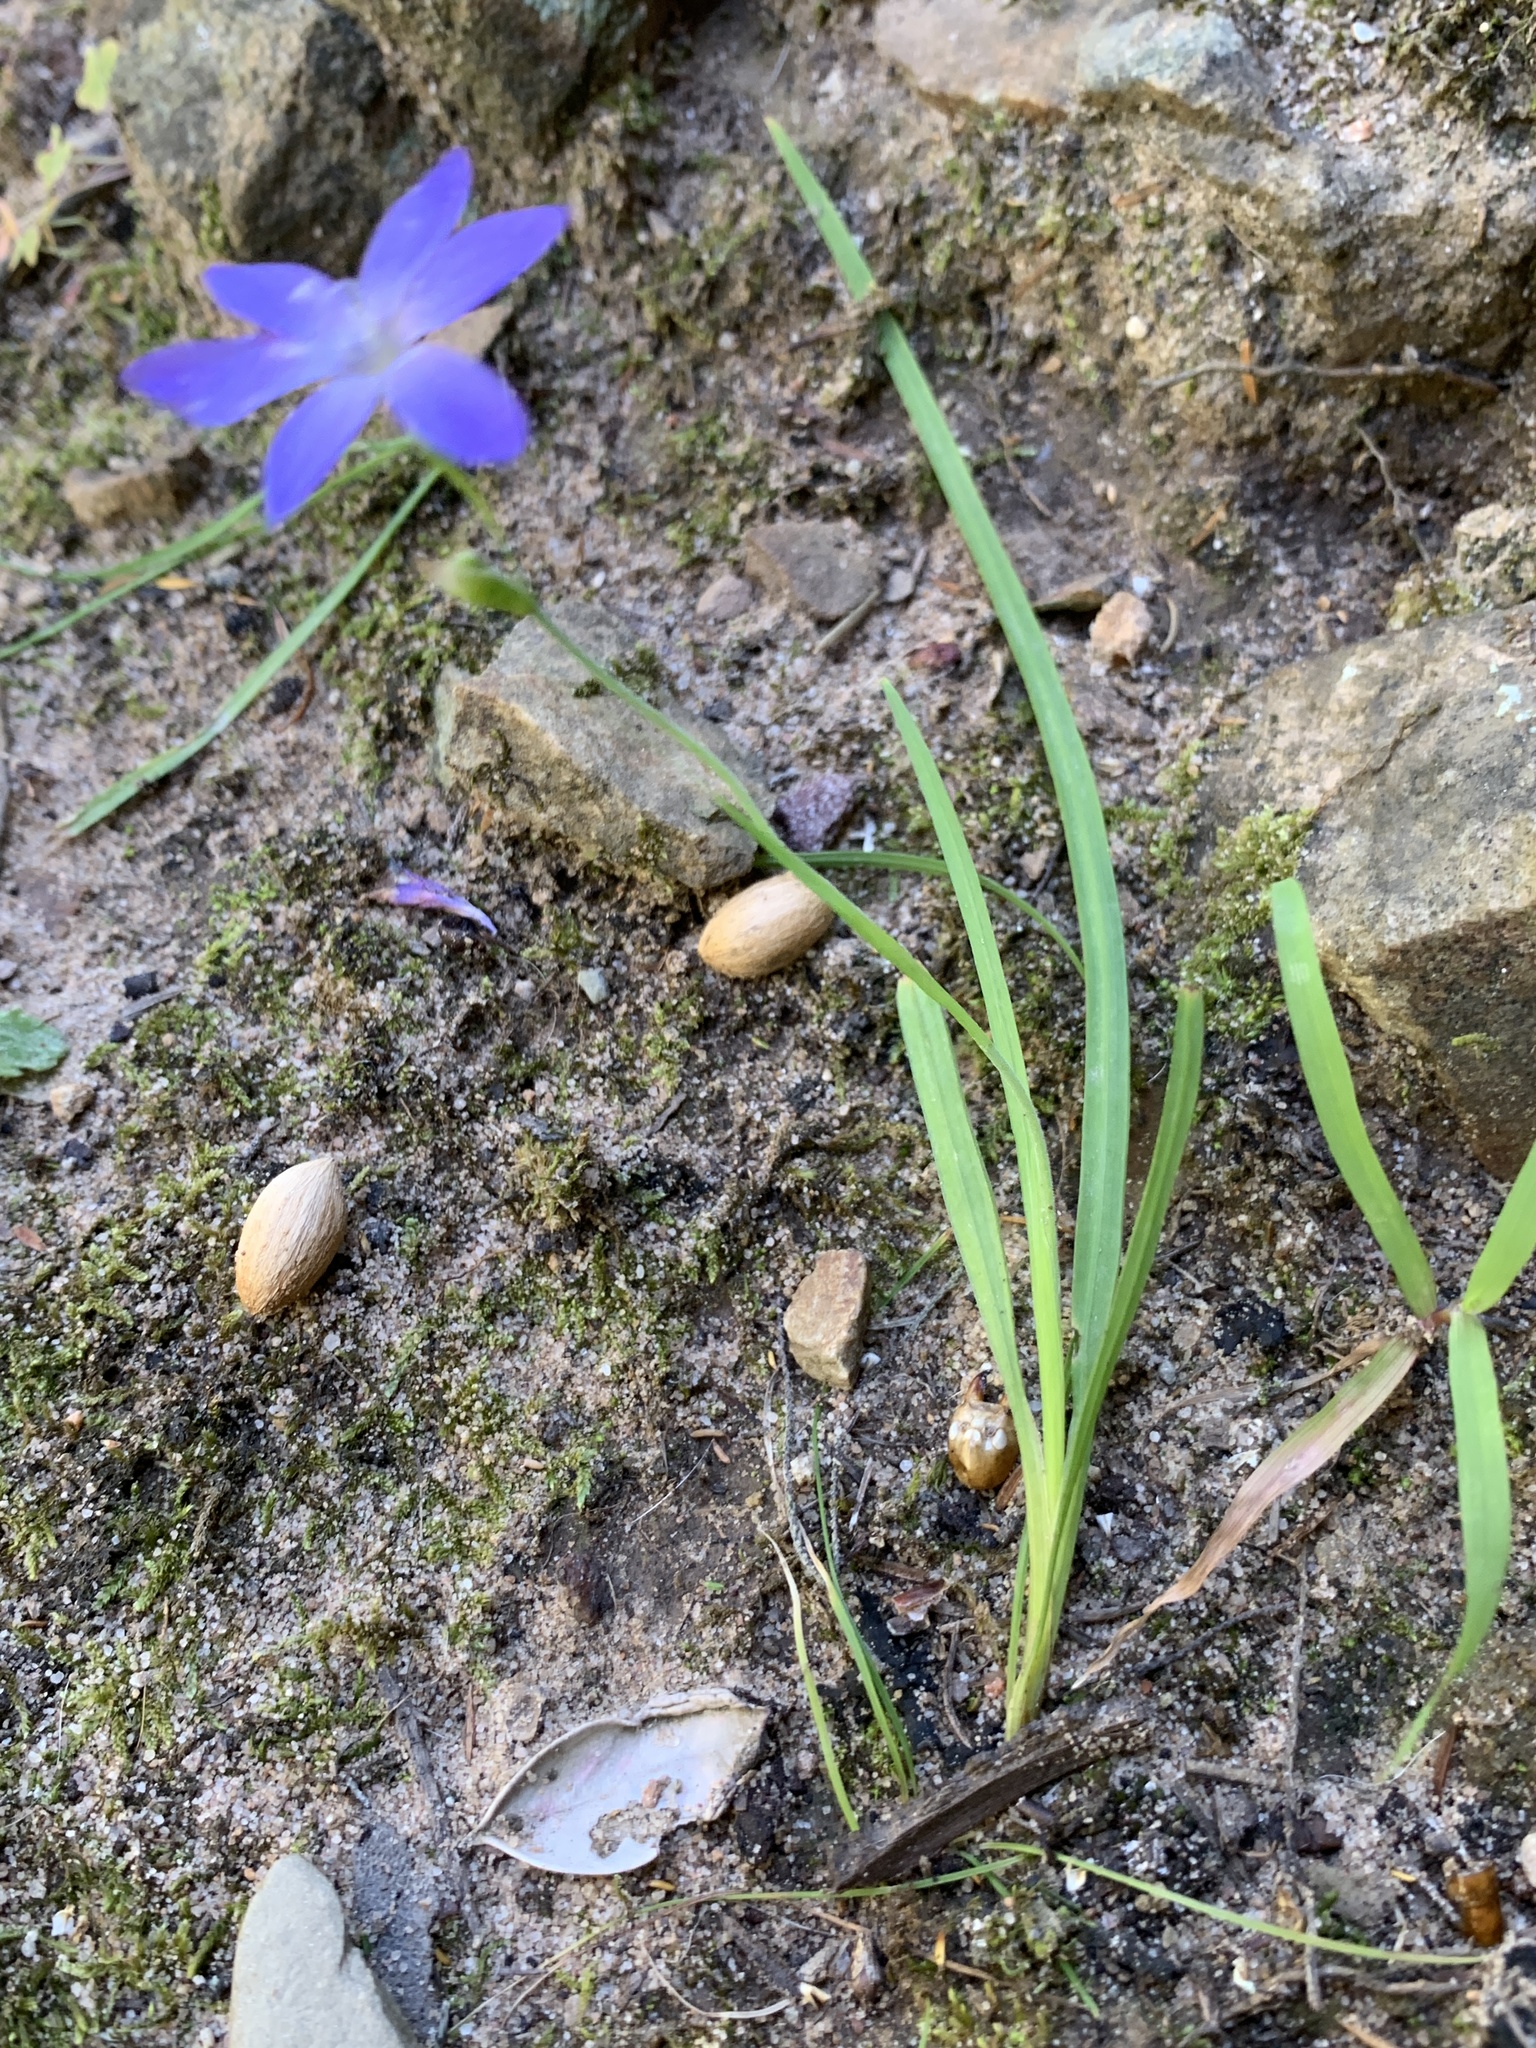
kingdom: Plantae
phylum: Tracheophyta
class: Liliopsida
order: Asparagales
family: Iridaceae
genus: Geissorhiza
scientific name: Geissorhiza aspera
